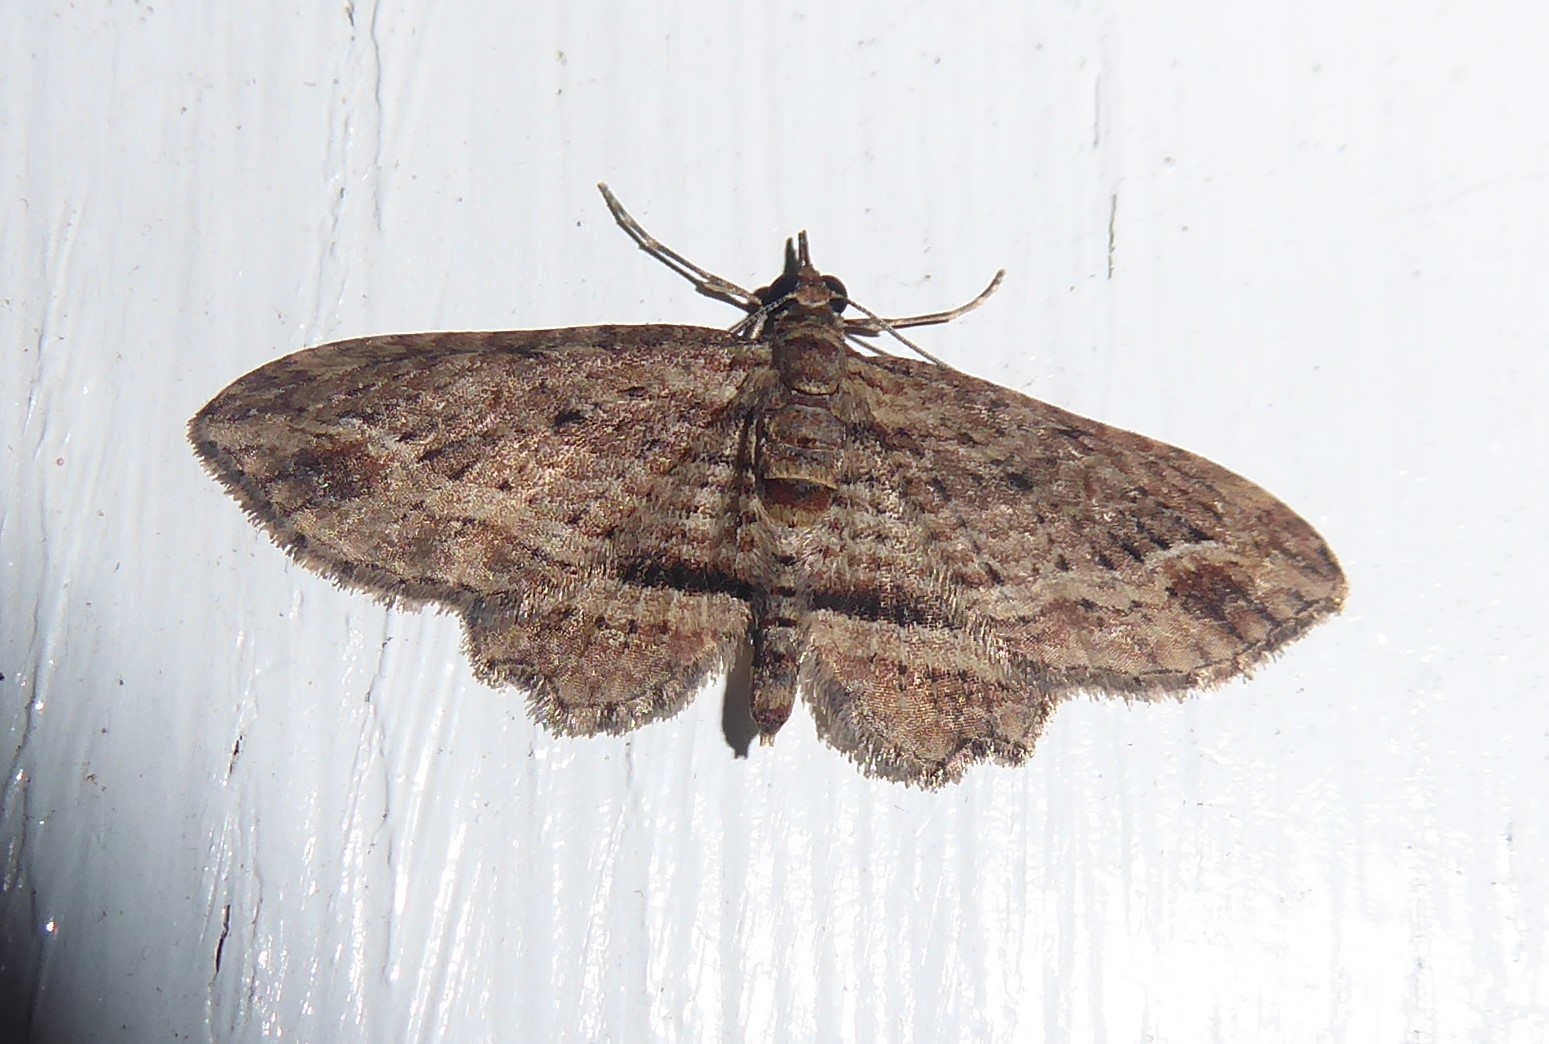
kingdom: Animalia
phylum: Arthropoda
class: Insecta
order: Lepidoptera
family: Geometridae
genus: Chloroclystis
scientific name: Chloroclystis filata
